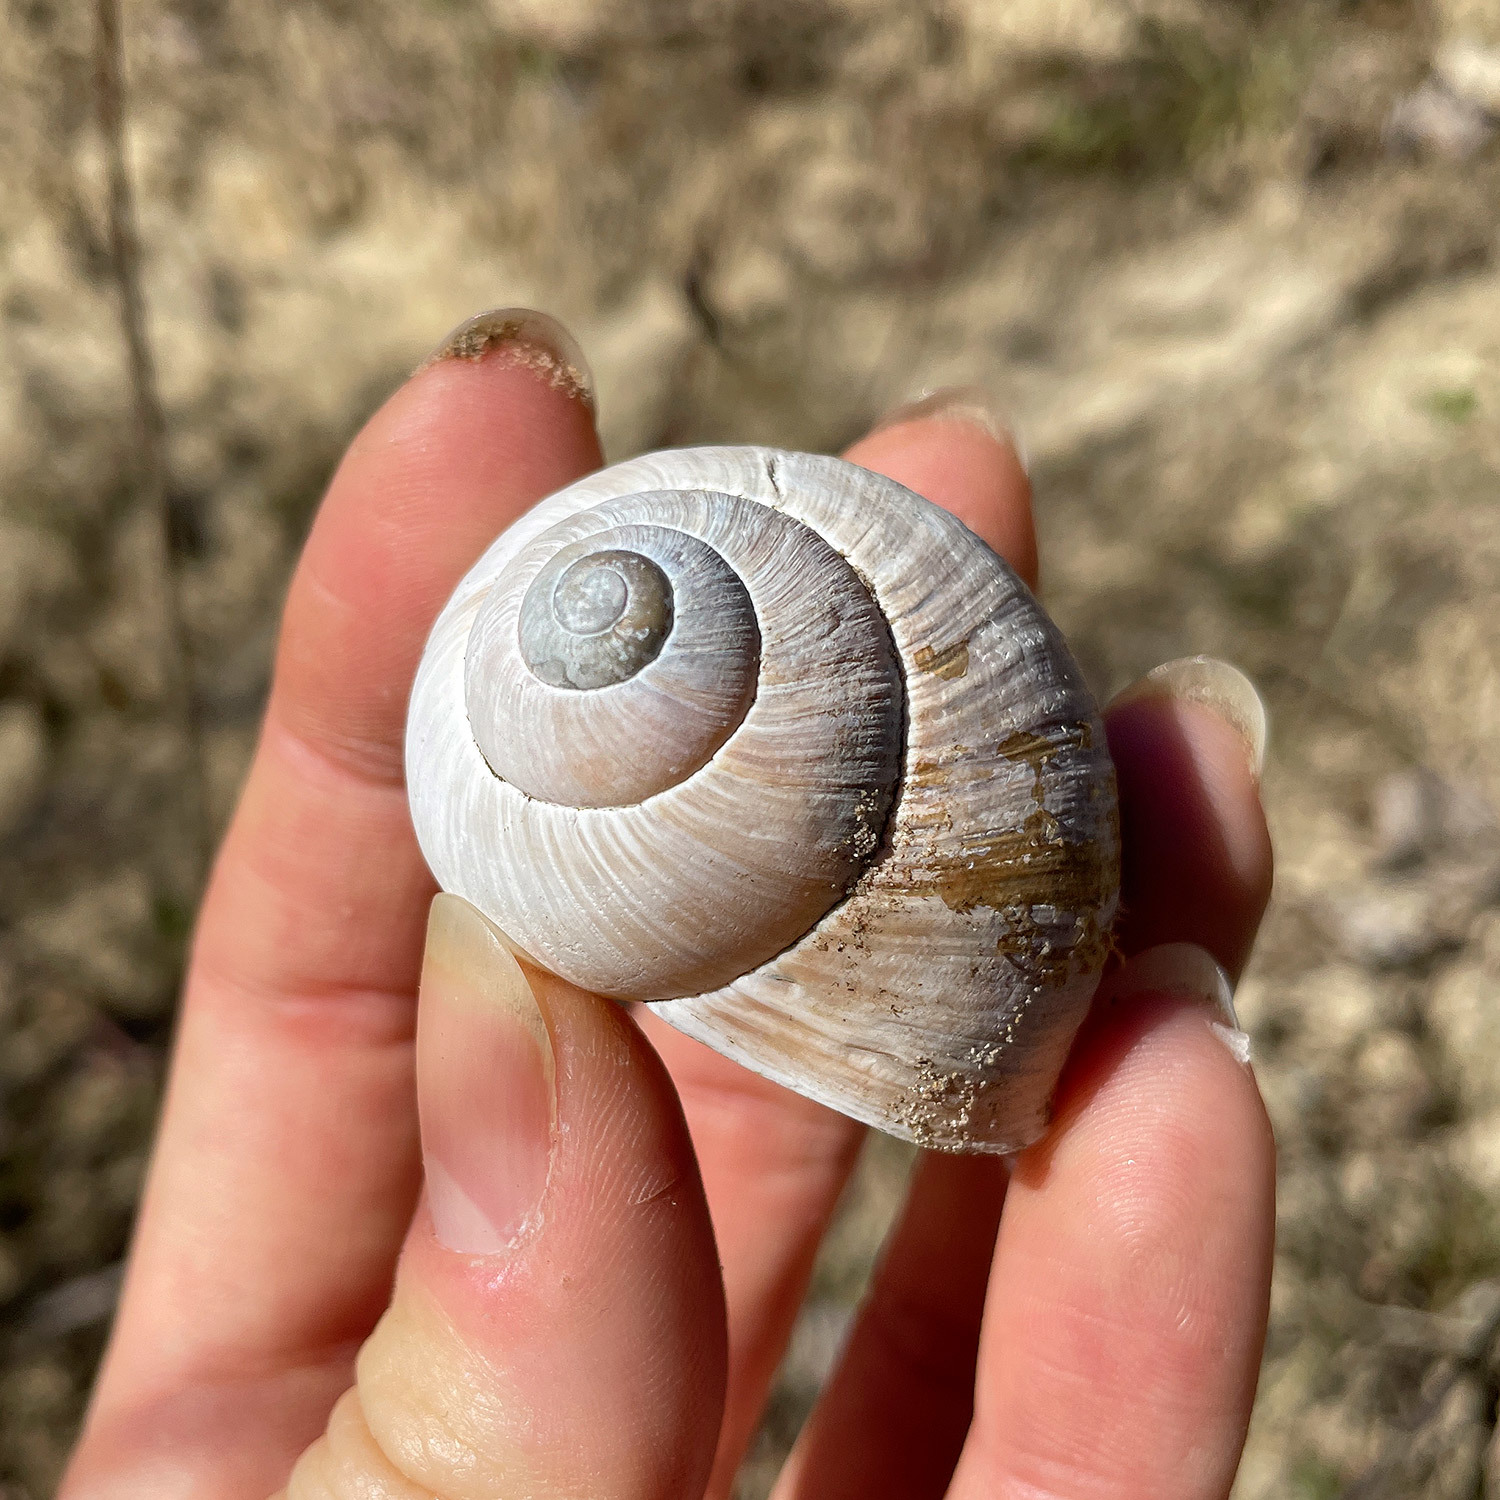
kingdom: Animalia
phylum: Mollusca
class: Gastropoda
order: Stylommatophora
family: Helicidae
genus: Helix
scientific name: Helix pomatia
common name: Roman snail
